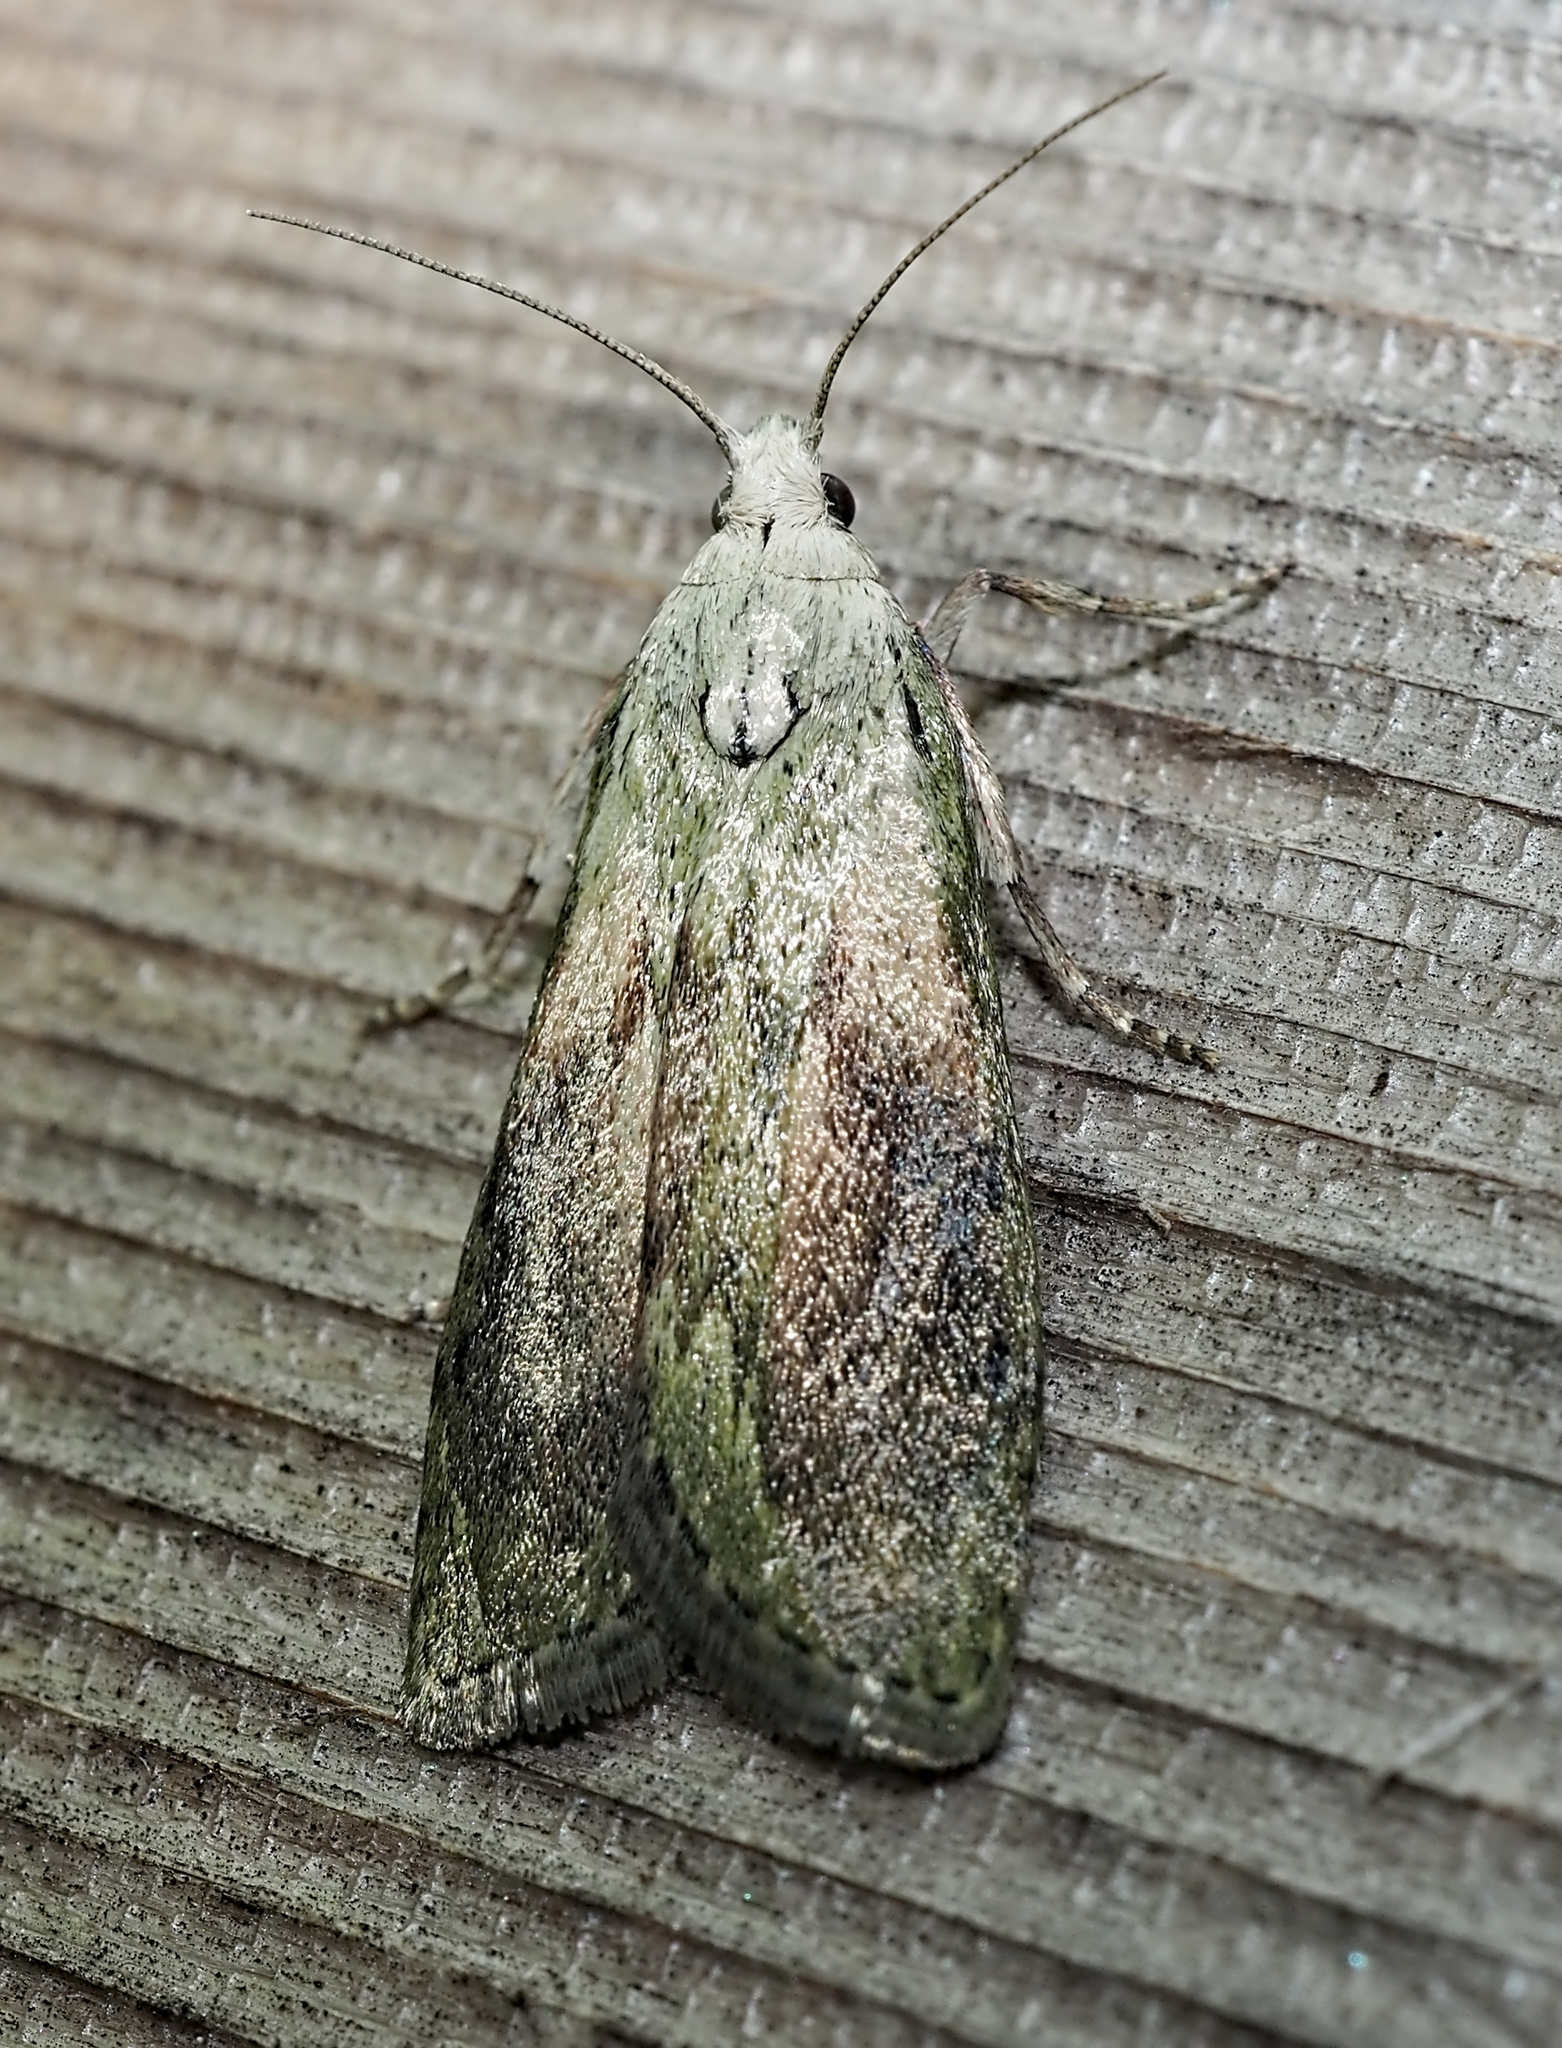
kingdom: Animalia
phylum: Arthropoda
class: Insecta
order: Lepidoptera
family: Pyralidae
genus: Aphomia
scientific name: Aphomia sociella
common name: Bee moth
